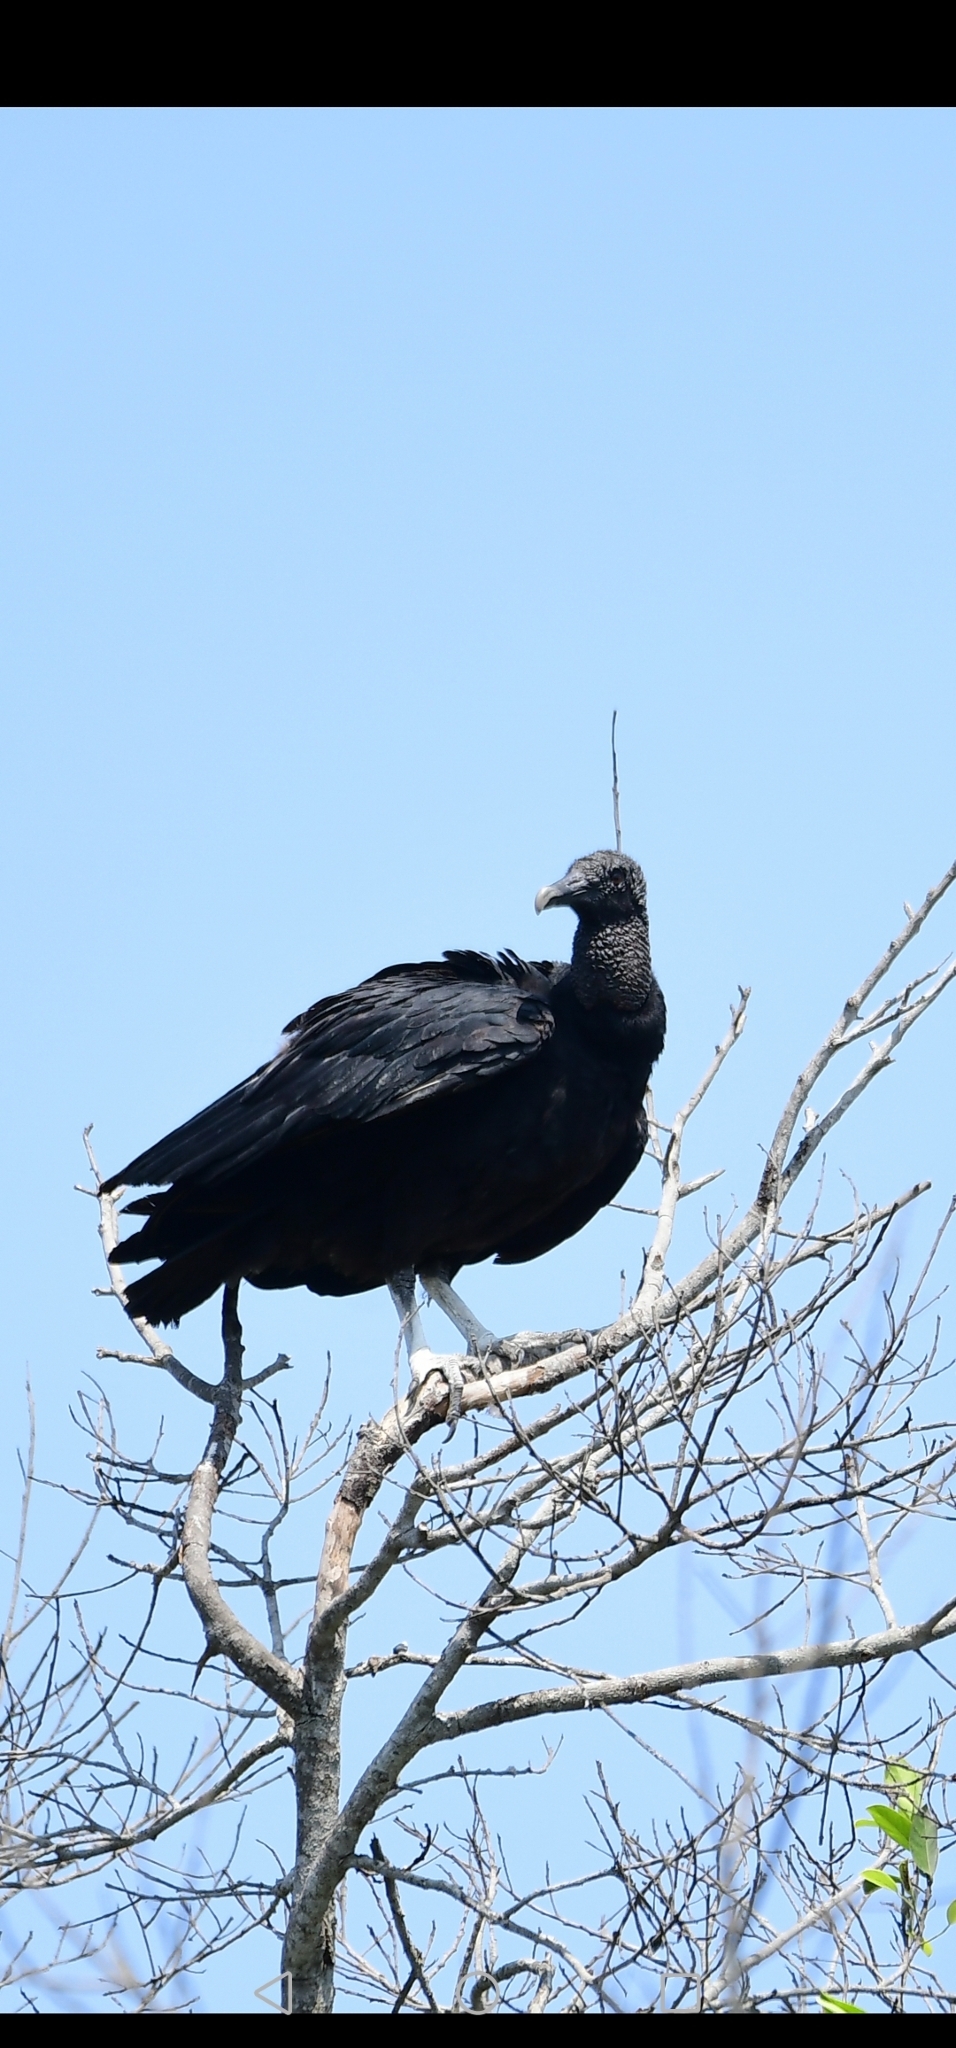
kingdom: Animalia
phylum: Chordata
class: Aves
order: Accipitriformes
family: Cathartidae
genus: Coragyps
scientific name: Coragyps atratus
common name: Black vulture
